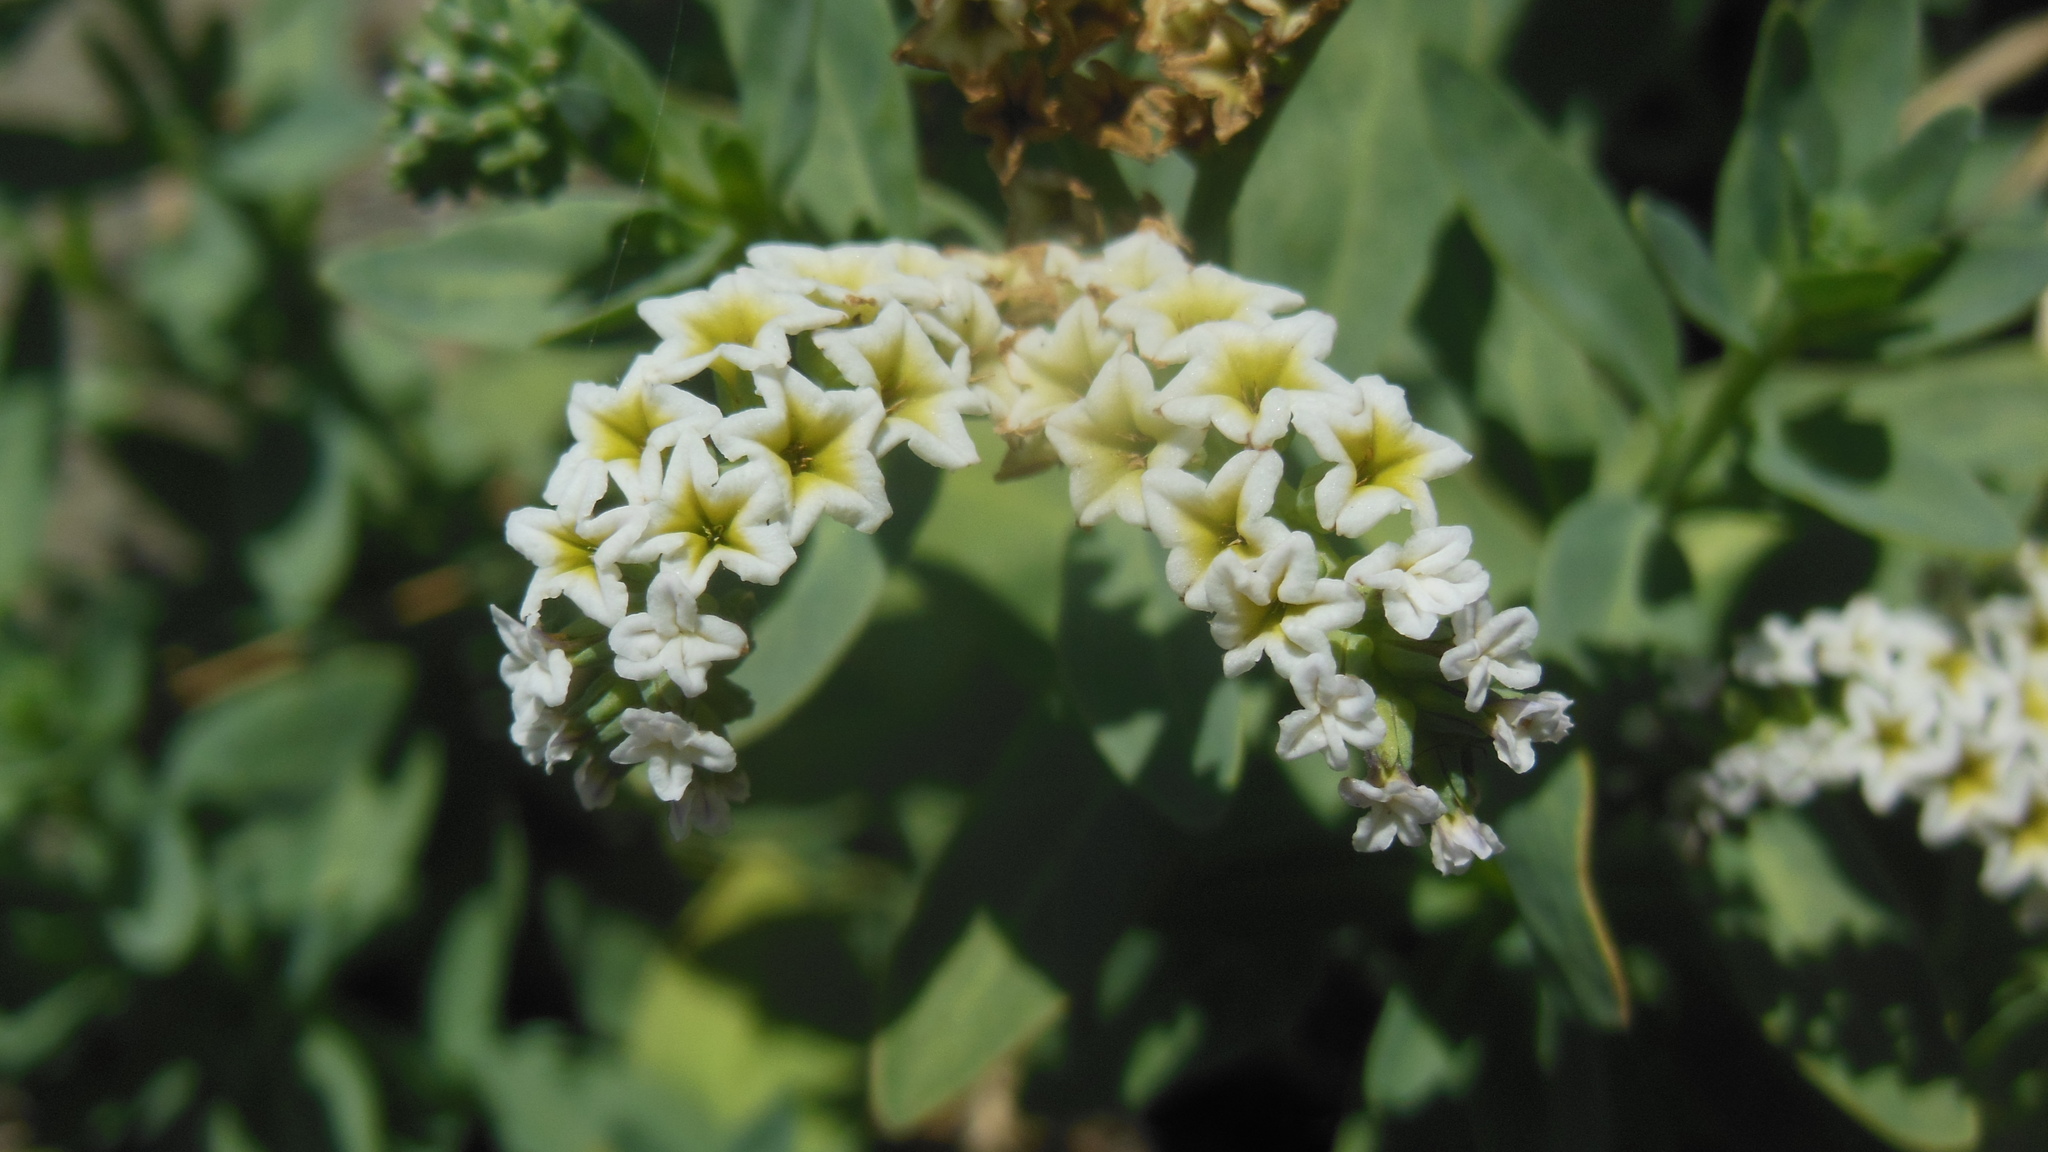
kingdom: Plantae
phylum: Tracheophyta
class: Magnoliopsida
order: Boraginales
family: Heliotropiaceae
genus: Heliotropium
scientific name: Heliotropium curassavicum
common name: Seaside heliotrope
